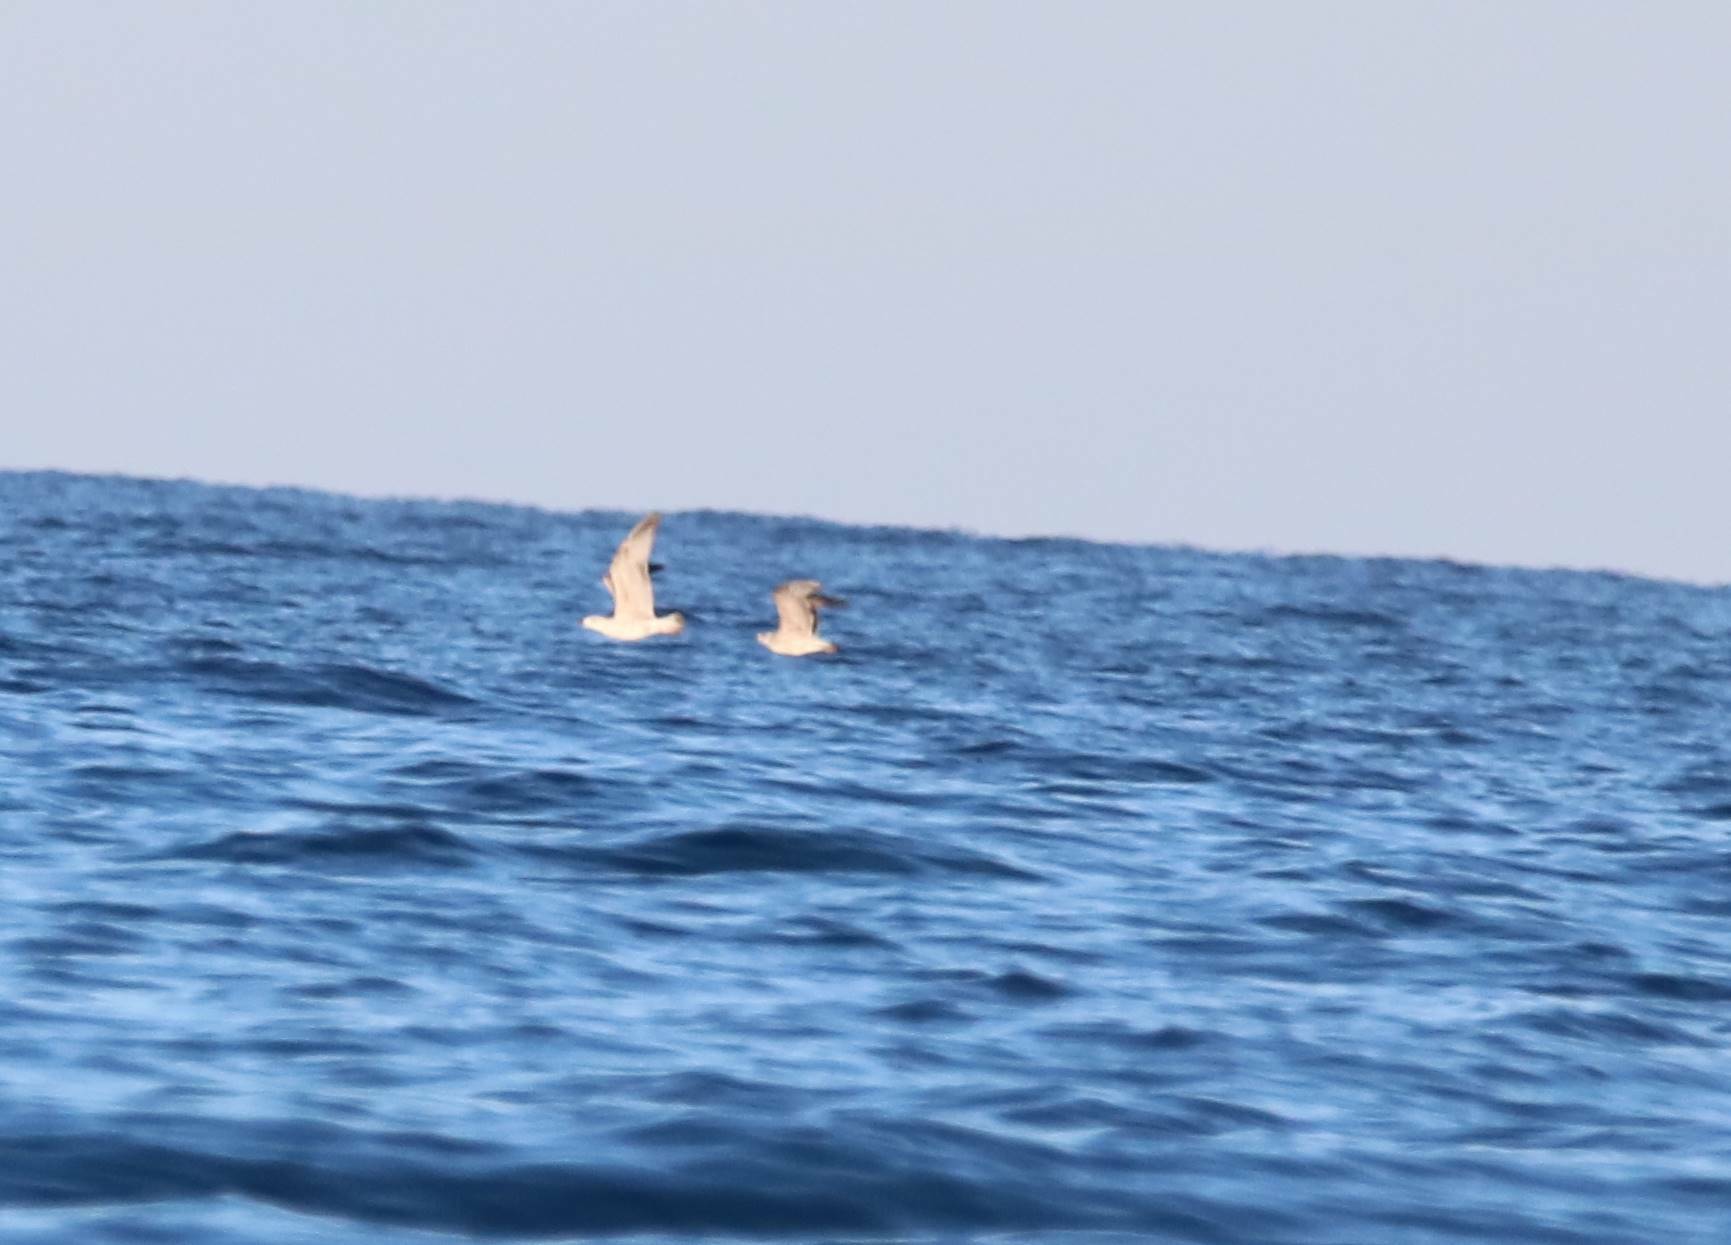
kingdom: Animalia
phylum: Chordata
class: Aves
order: Charadriiformes
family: Laridae
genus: Larus
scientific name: Larus michahellis
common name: Yellow-legged gull
